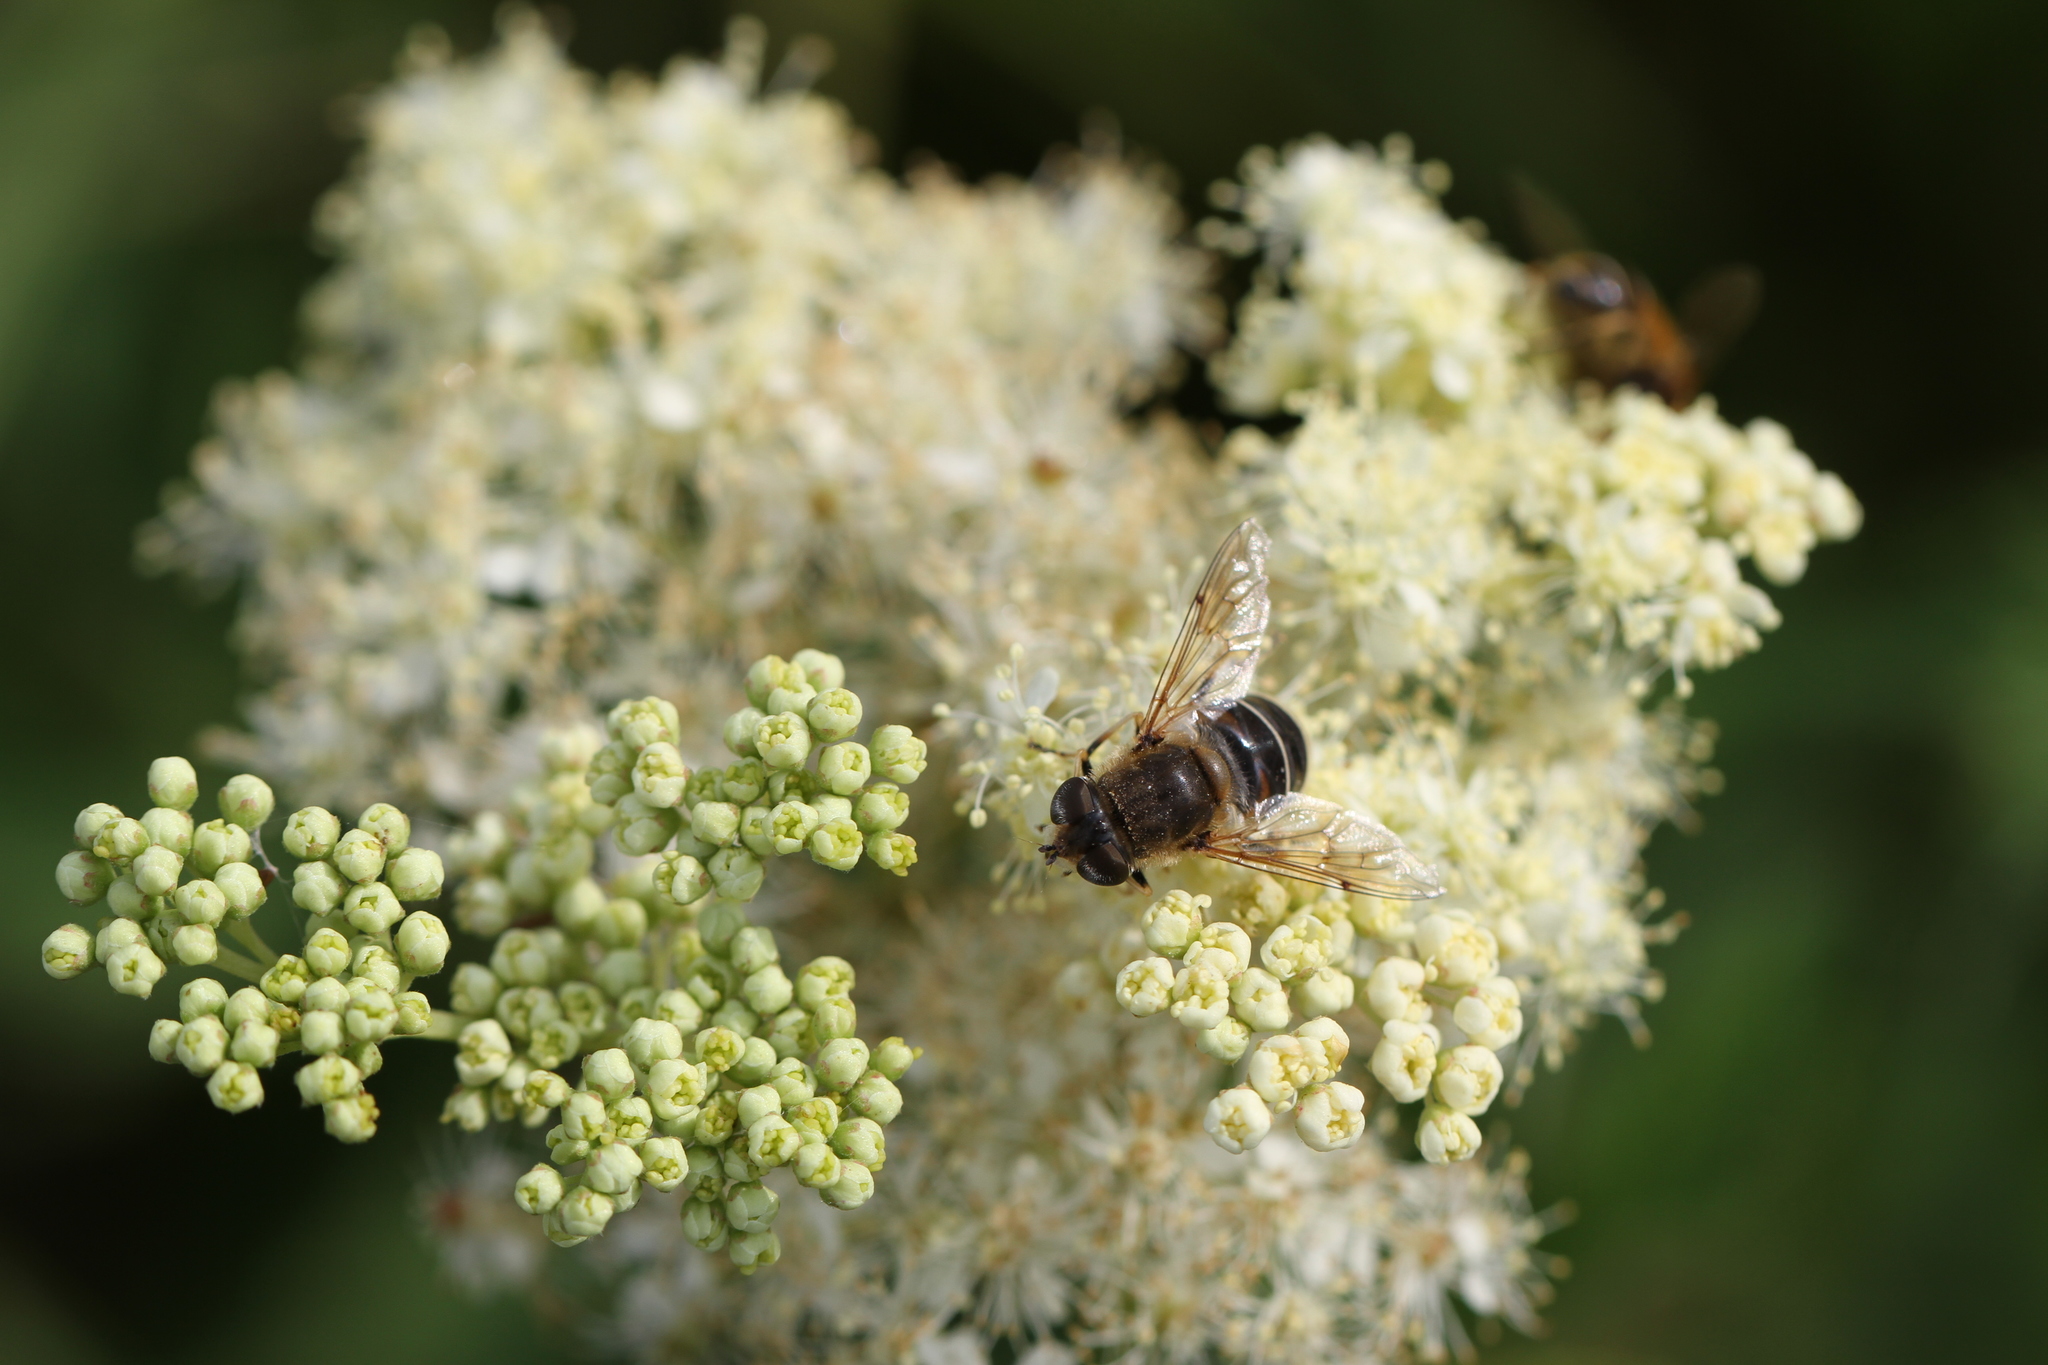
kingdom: Animalia
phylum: Arthropoda
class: Insecta
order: Diptera
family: Syrphidae
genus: Eristalis
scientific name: Eristalis nemorum
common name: Orange-spined drone fly
